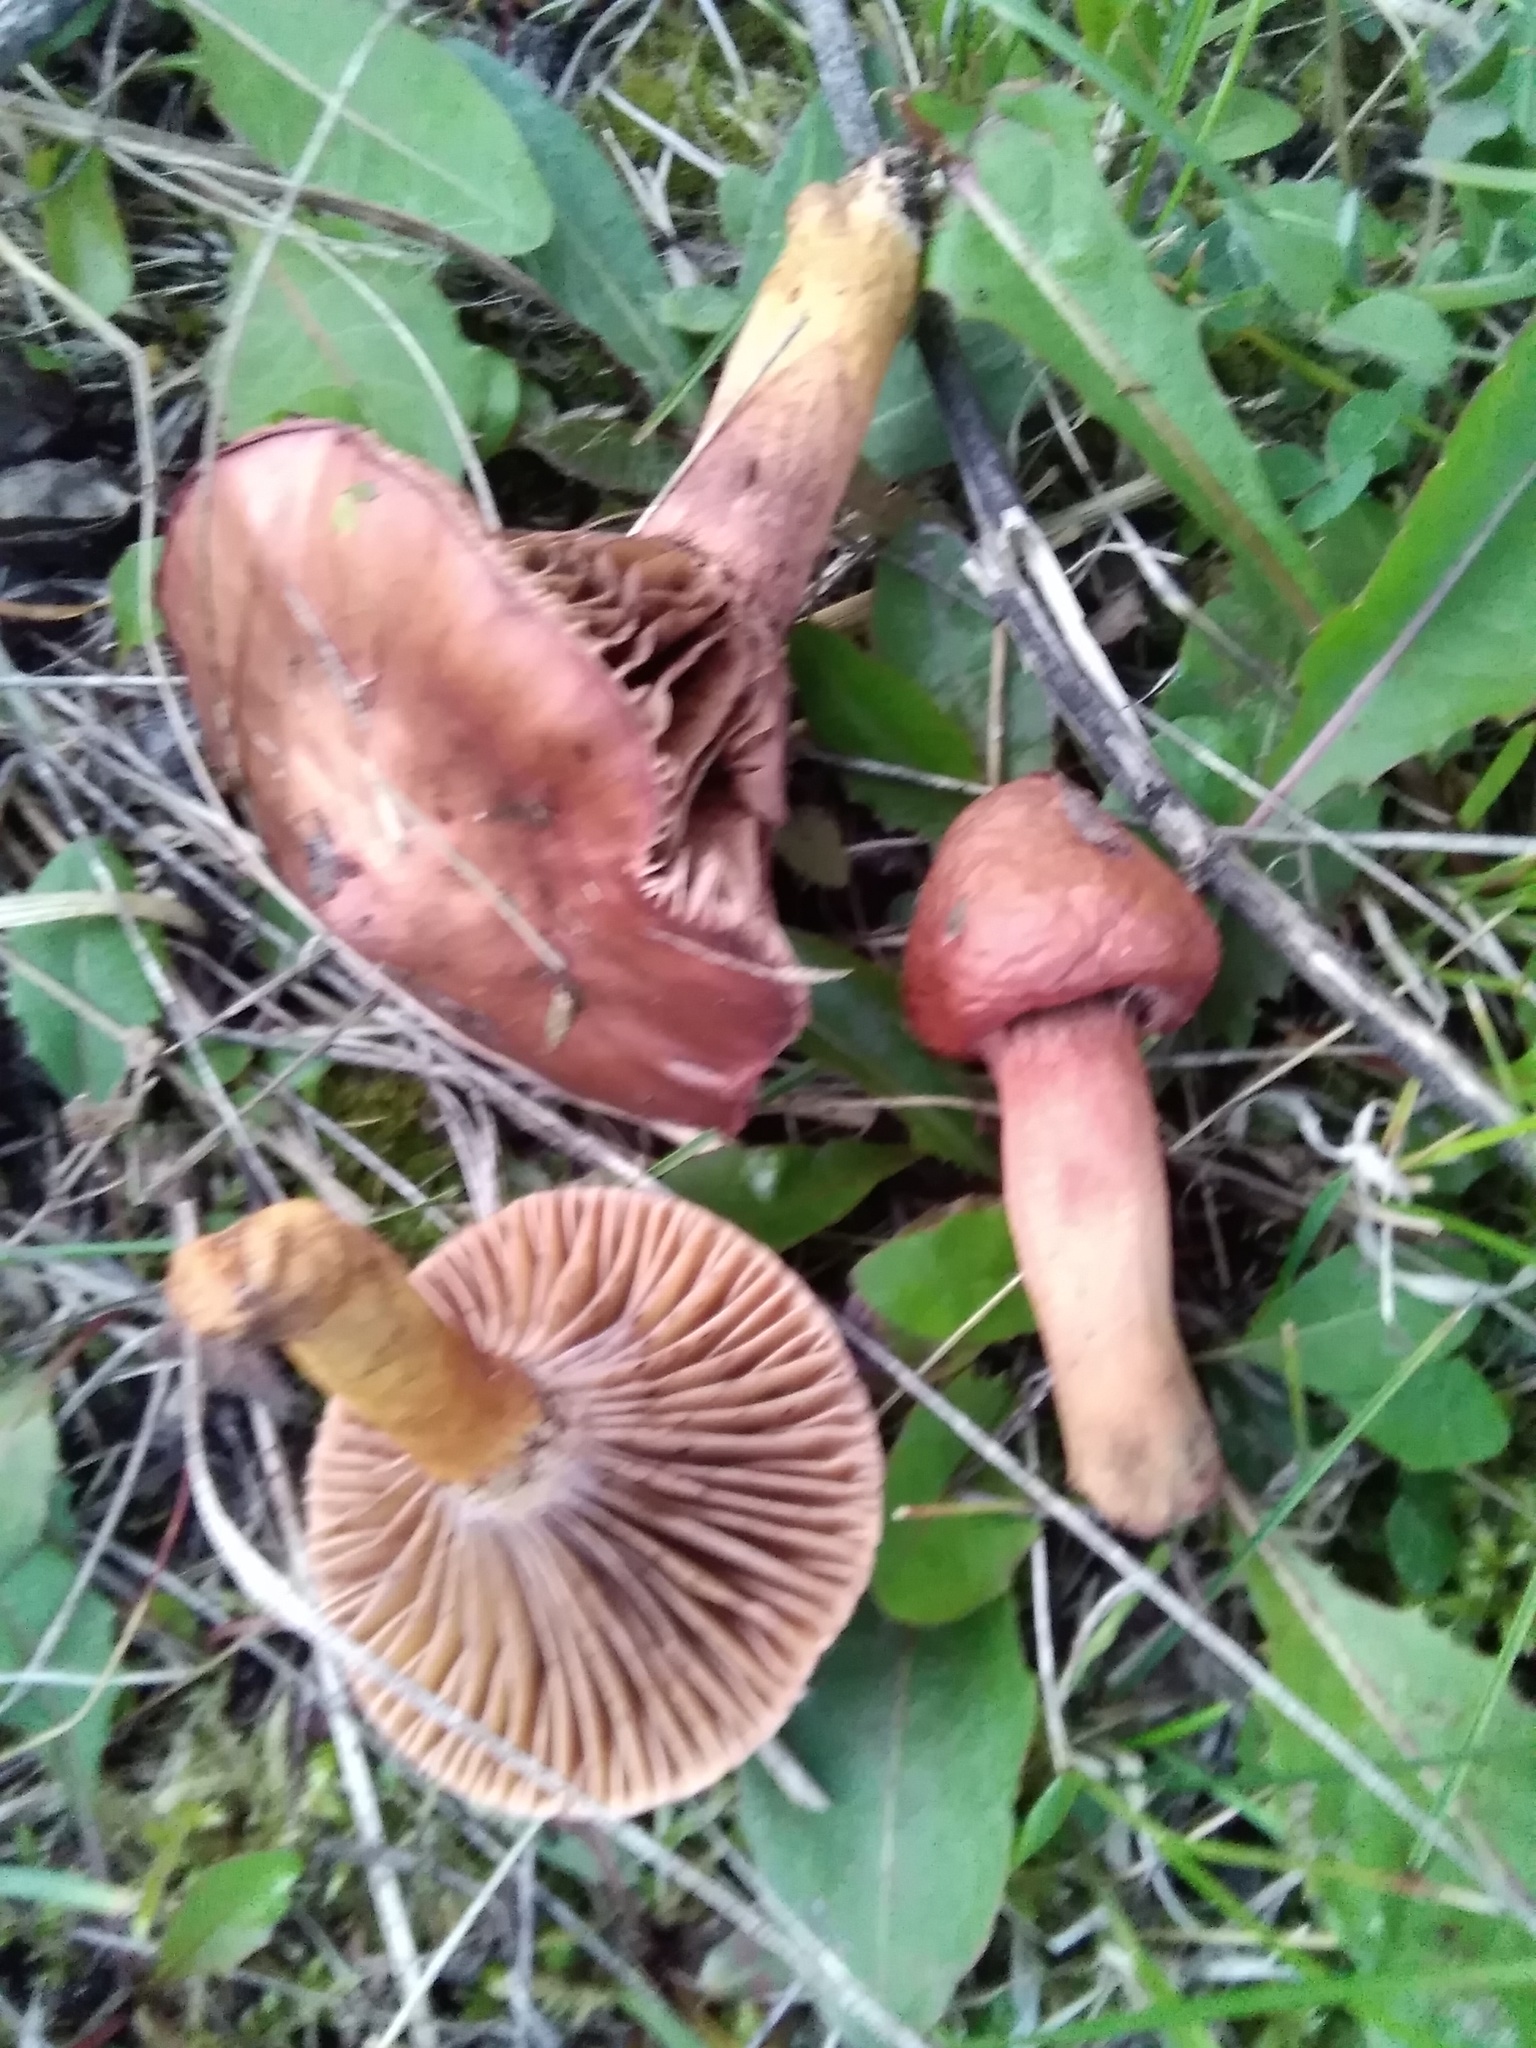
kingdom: Fungi
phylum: Basidiomycota
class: Agaricomycetes
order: Boletales
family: Gomphidiaceae
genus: Chroogomphus
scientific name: Chroogomphus rutilus
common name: Copper spike
